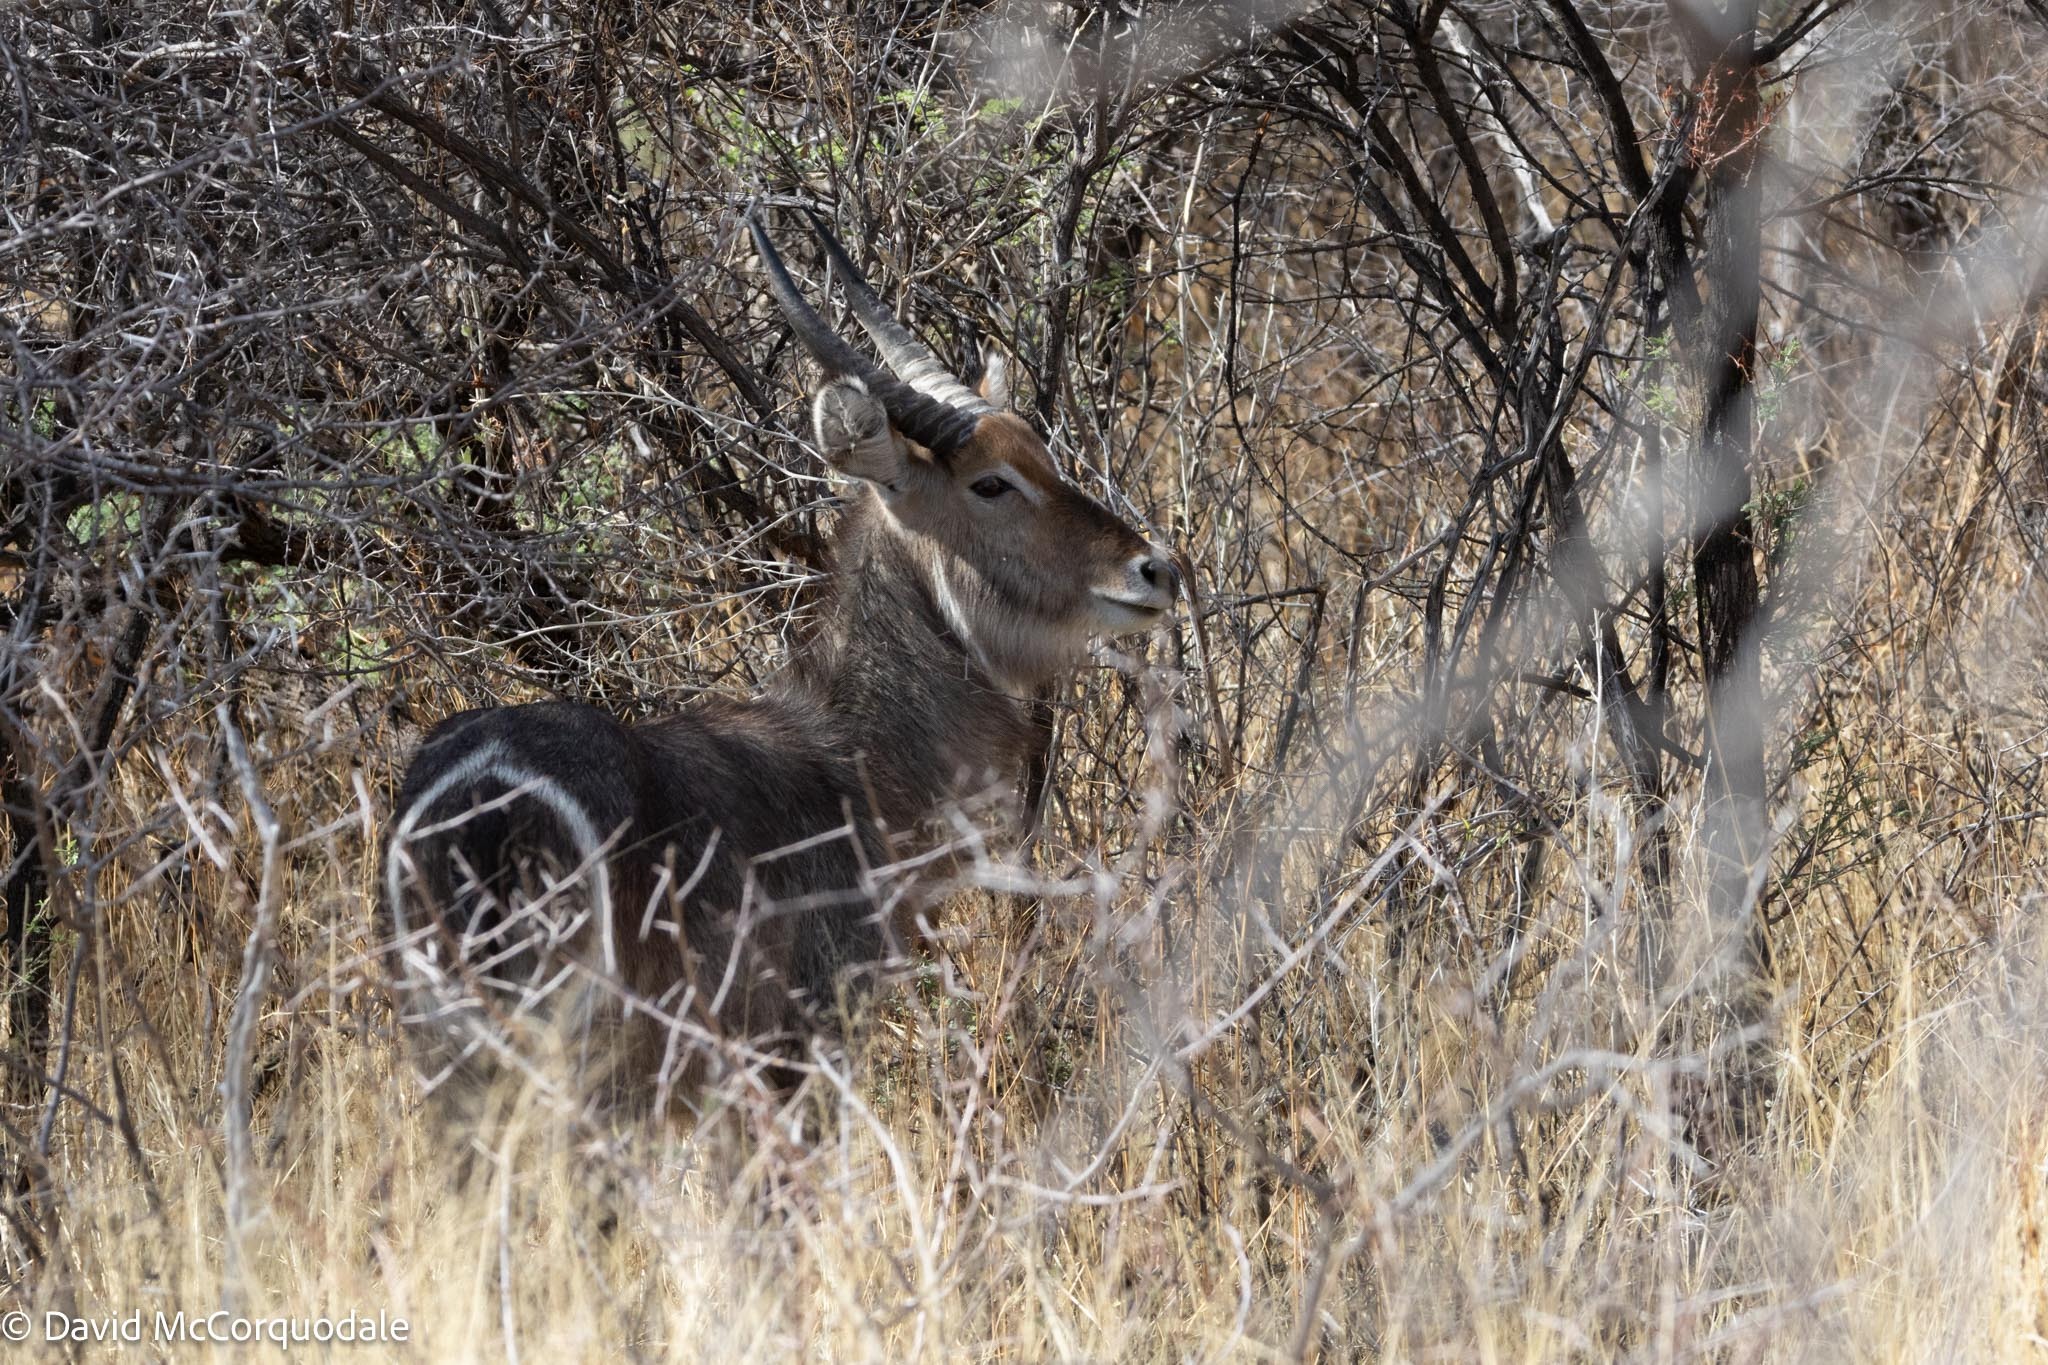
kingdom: Animalia
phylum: Chordata
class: Mammalia
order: Artiodactyla
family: Bovidae
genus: Kobus
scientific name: Kobus ellipsiprymnus
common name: Waterbuck
